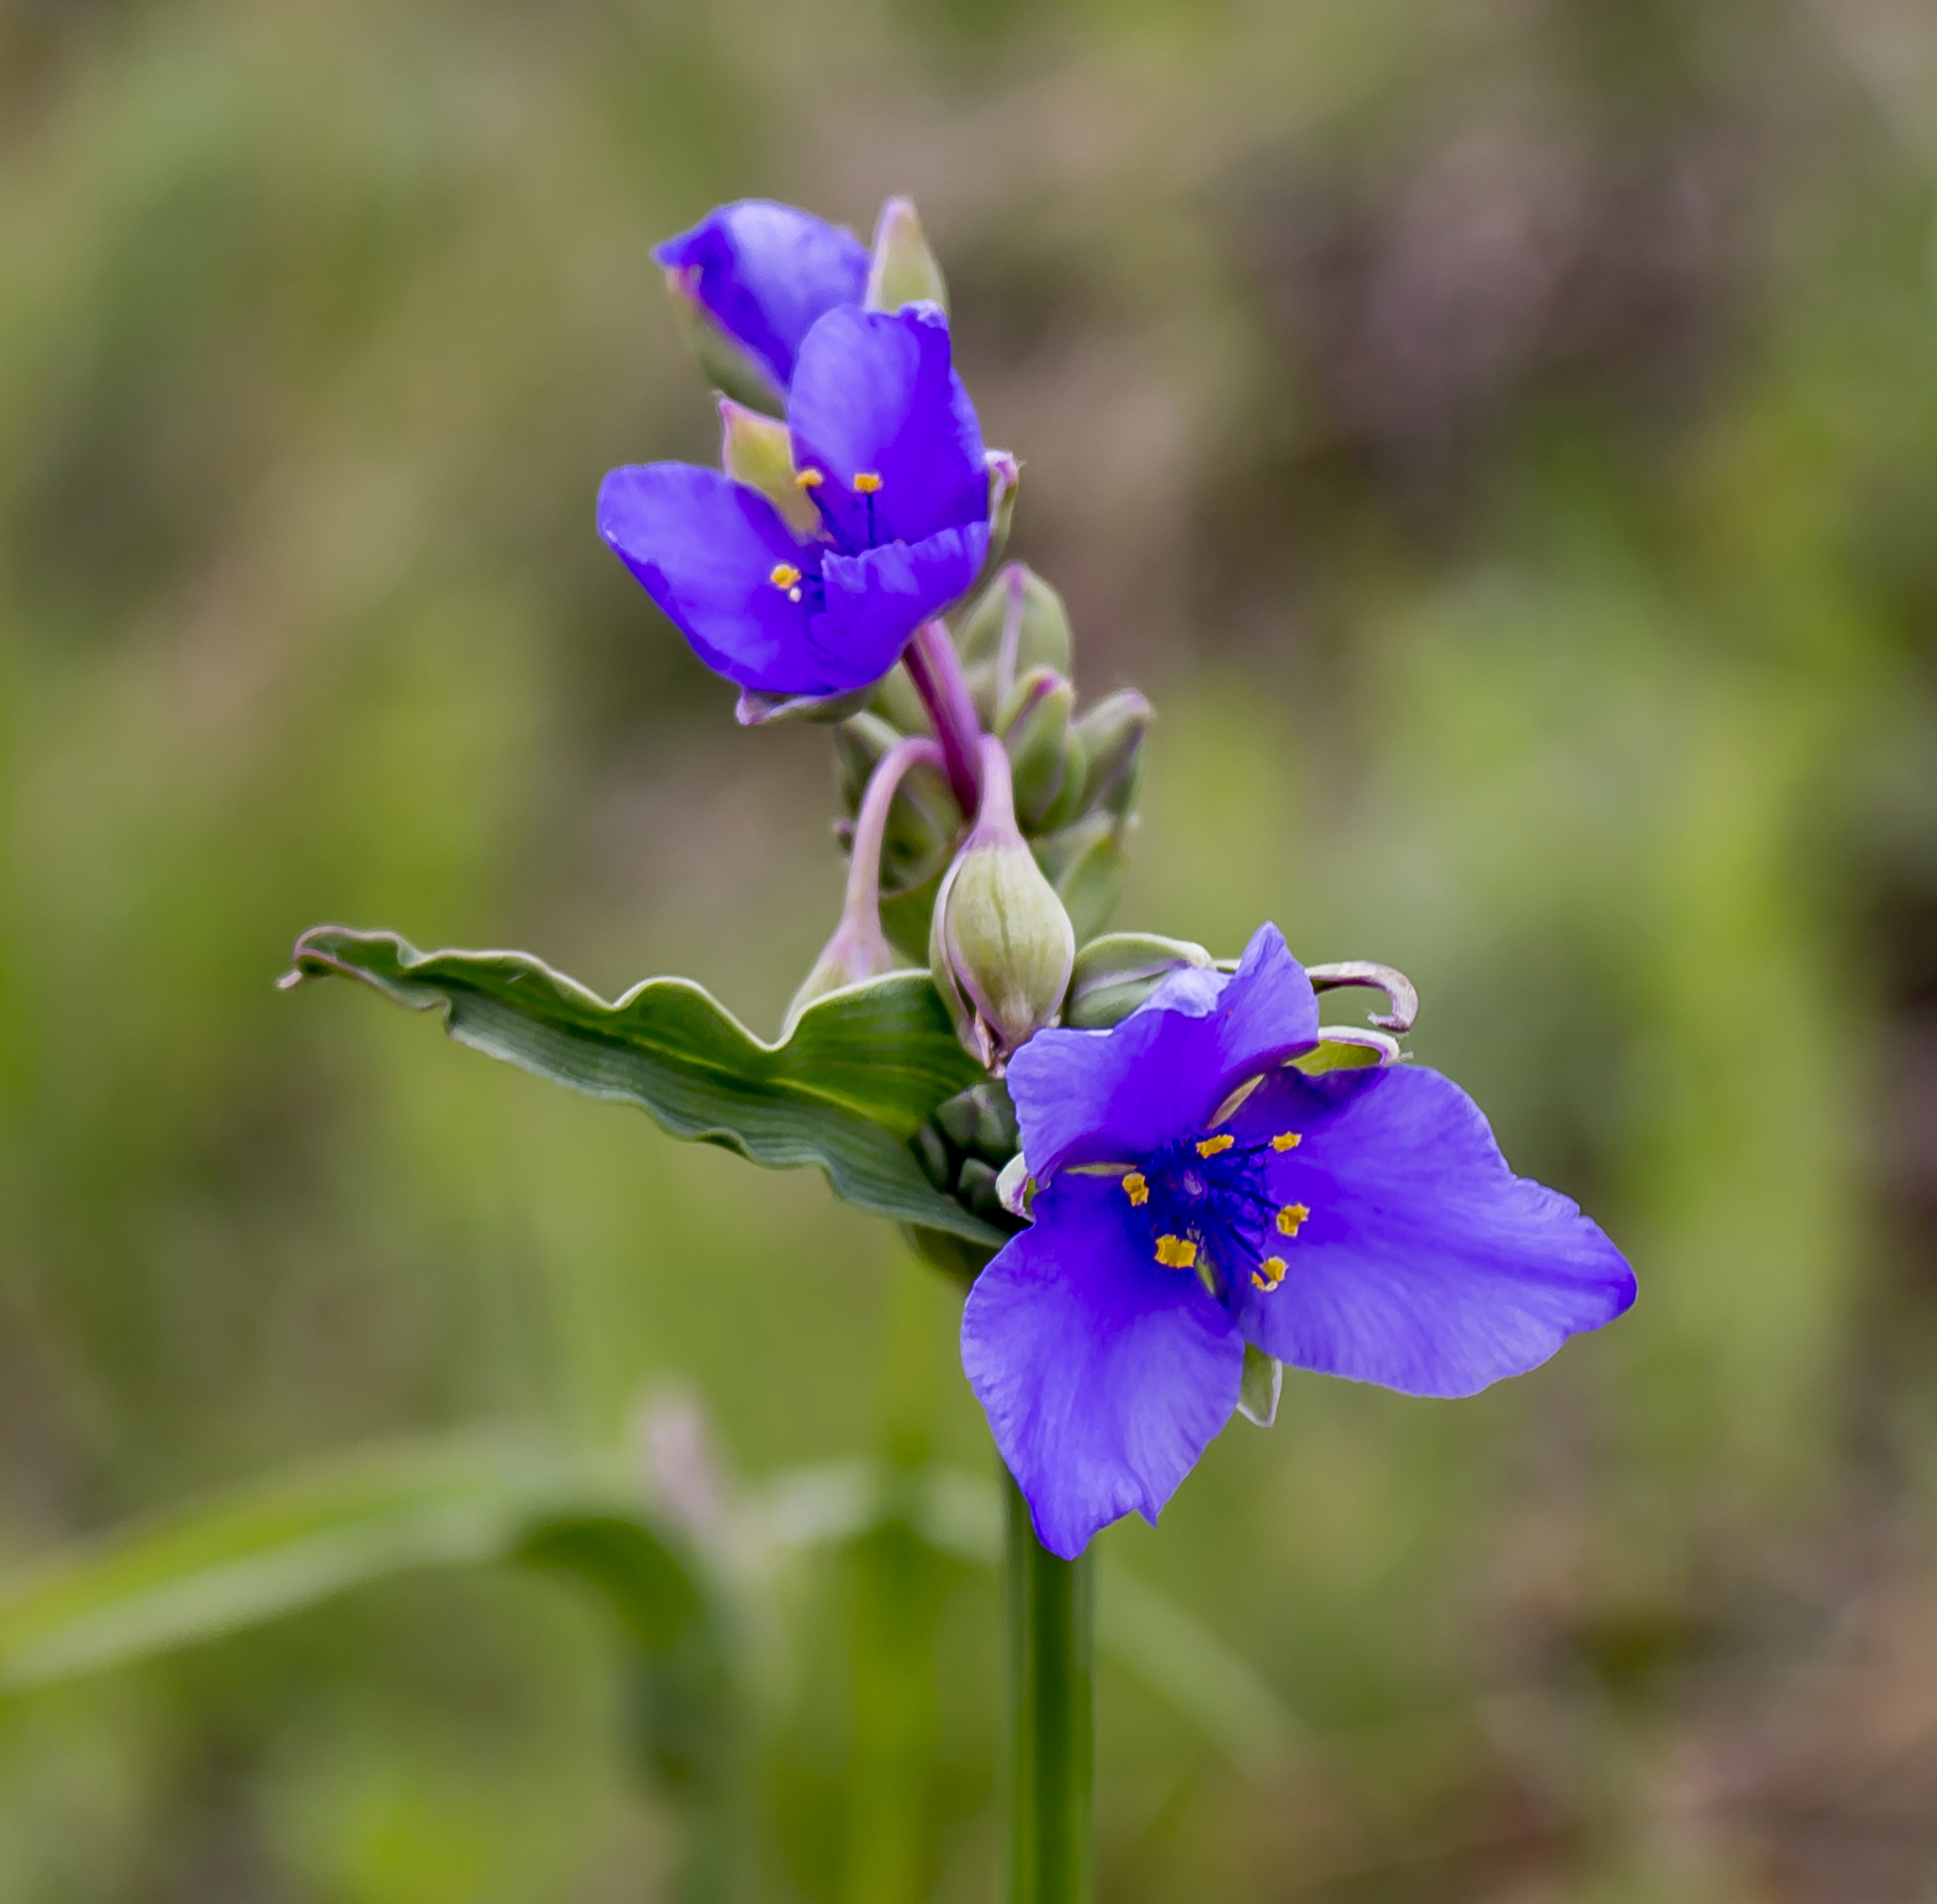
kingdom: Plantae
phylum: Tracheophyta
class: Liliopsida
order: Commelinales
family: Commelinaceae
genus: Tradescantia
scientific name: Tradescantia ohiensis
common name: Ohio spiderwort
